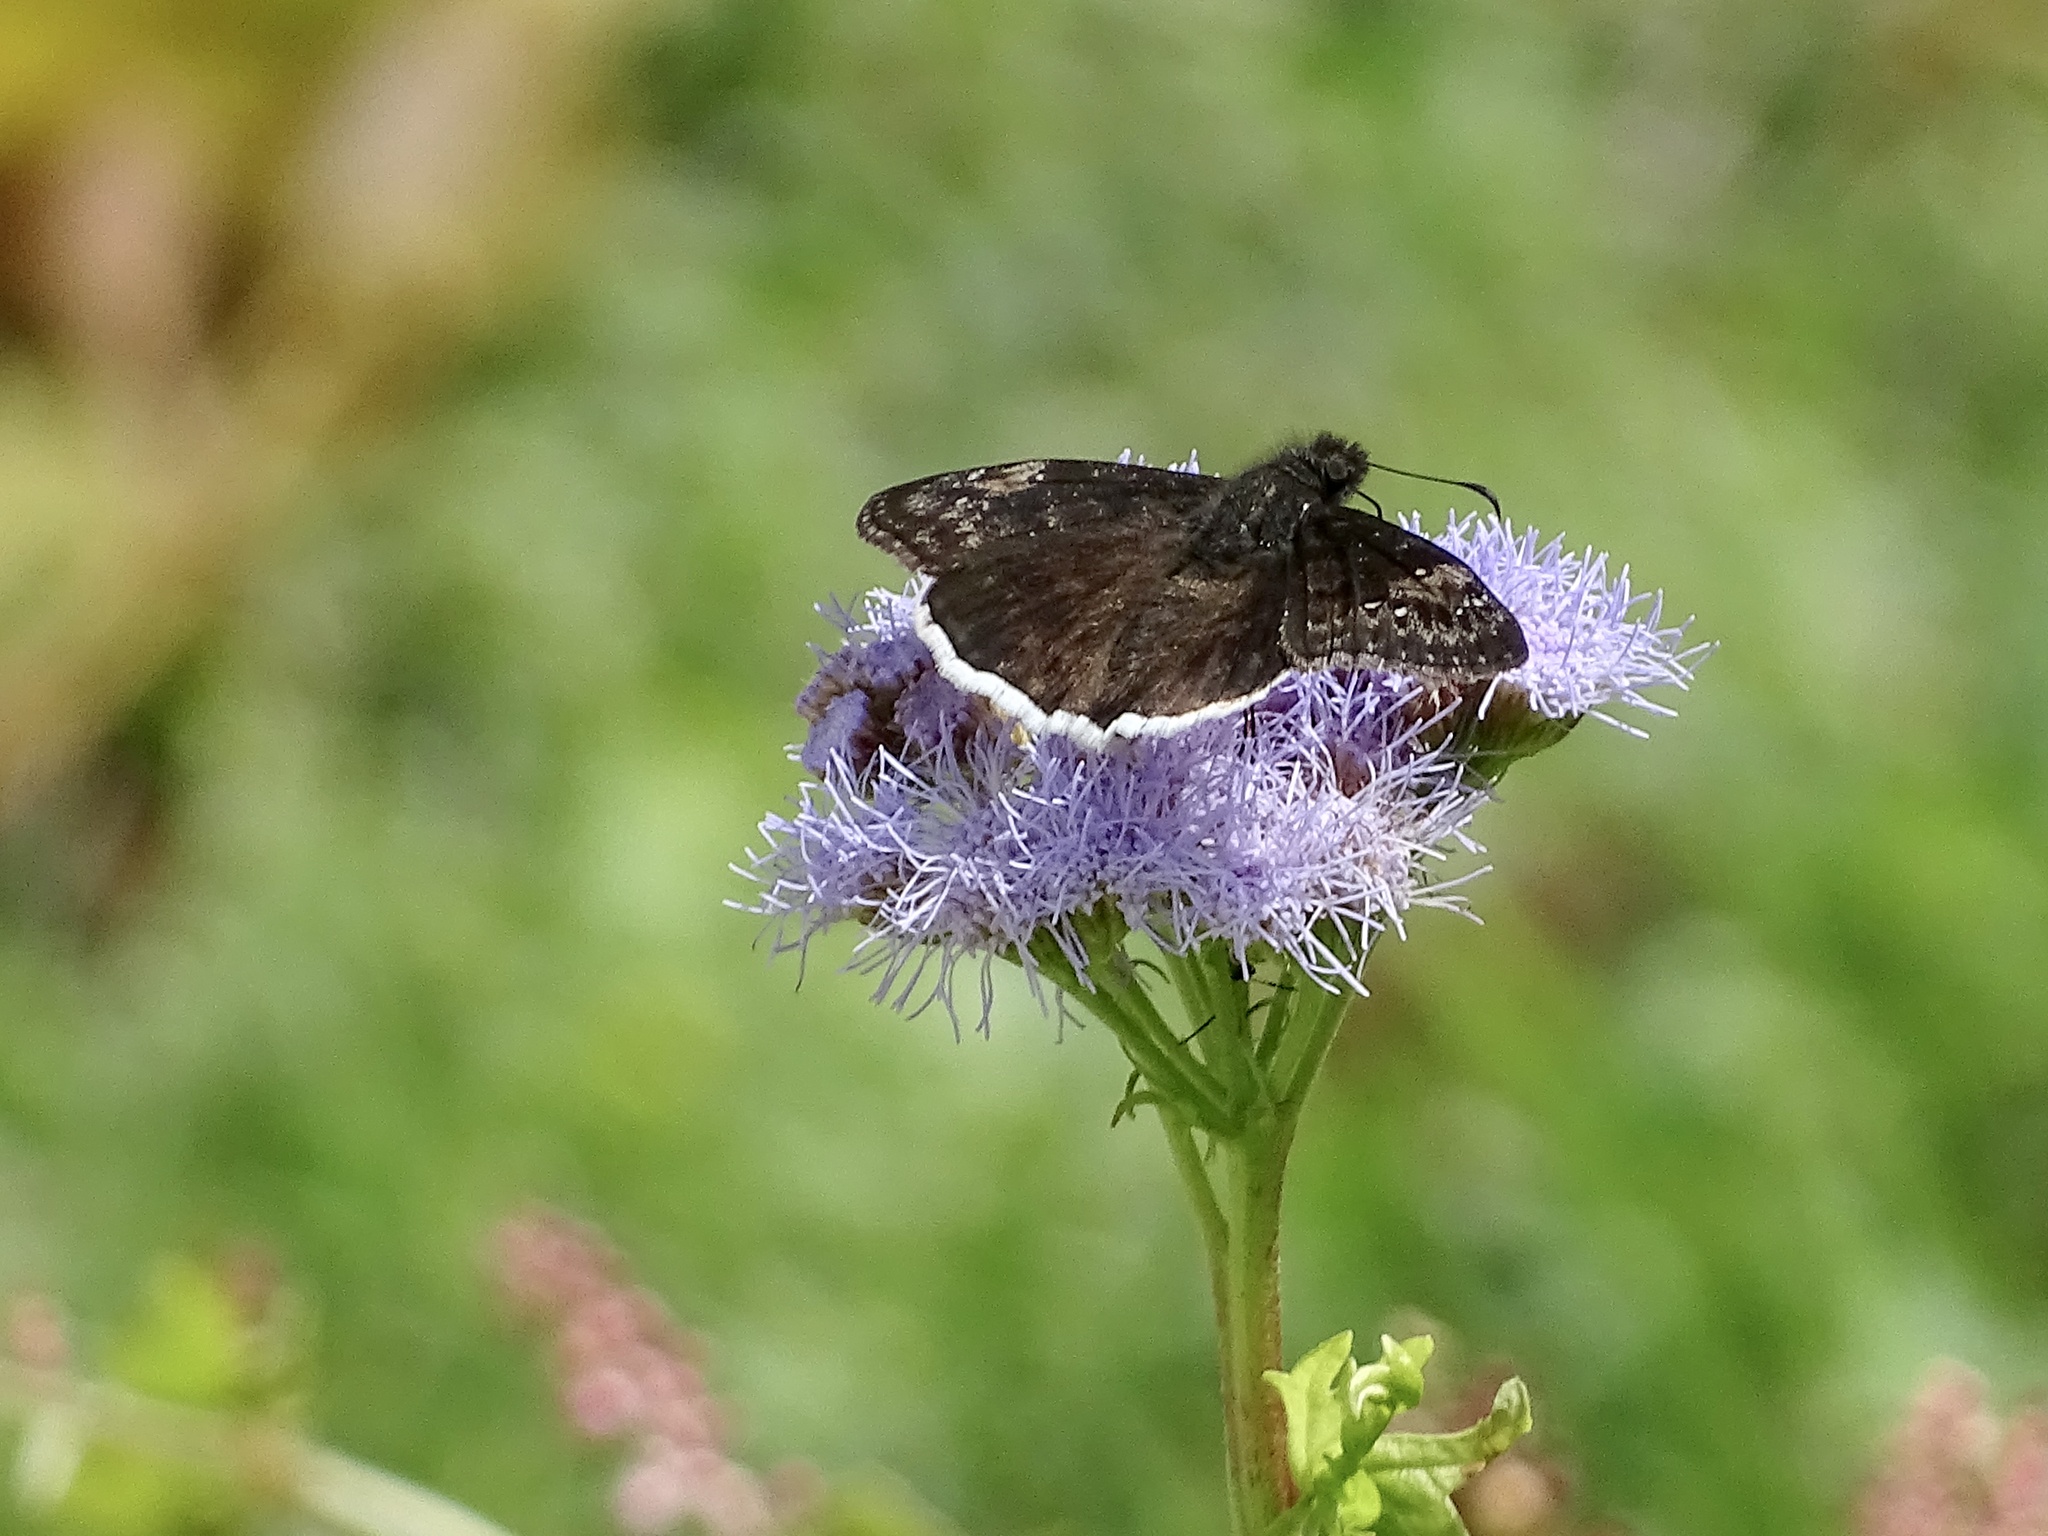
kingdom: Animalia
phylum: Arthropoda
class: Insecta
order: Lepidoptera
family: Hesperiidae
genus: Erynnis
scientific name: Erynnis funeralis
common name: Funereal duskywing
